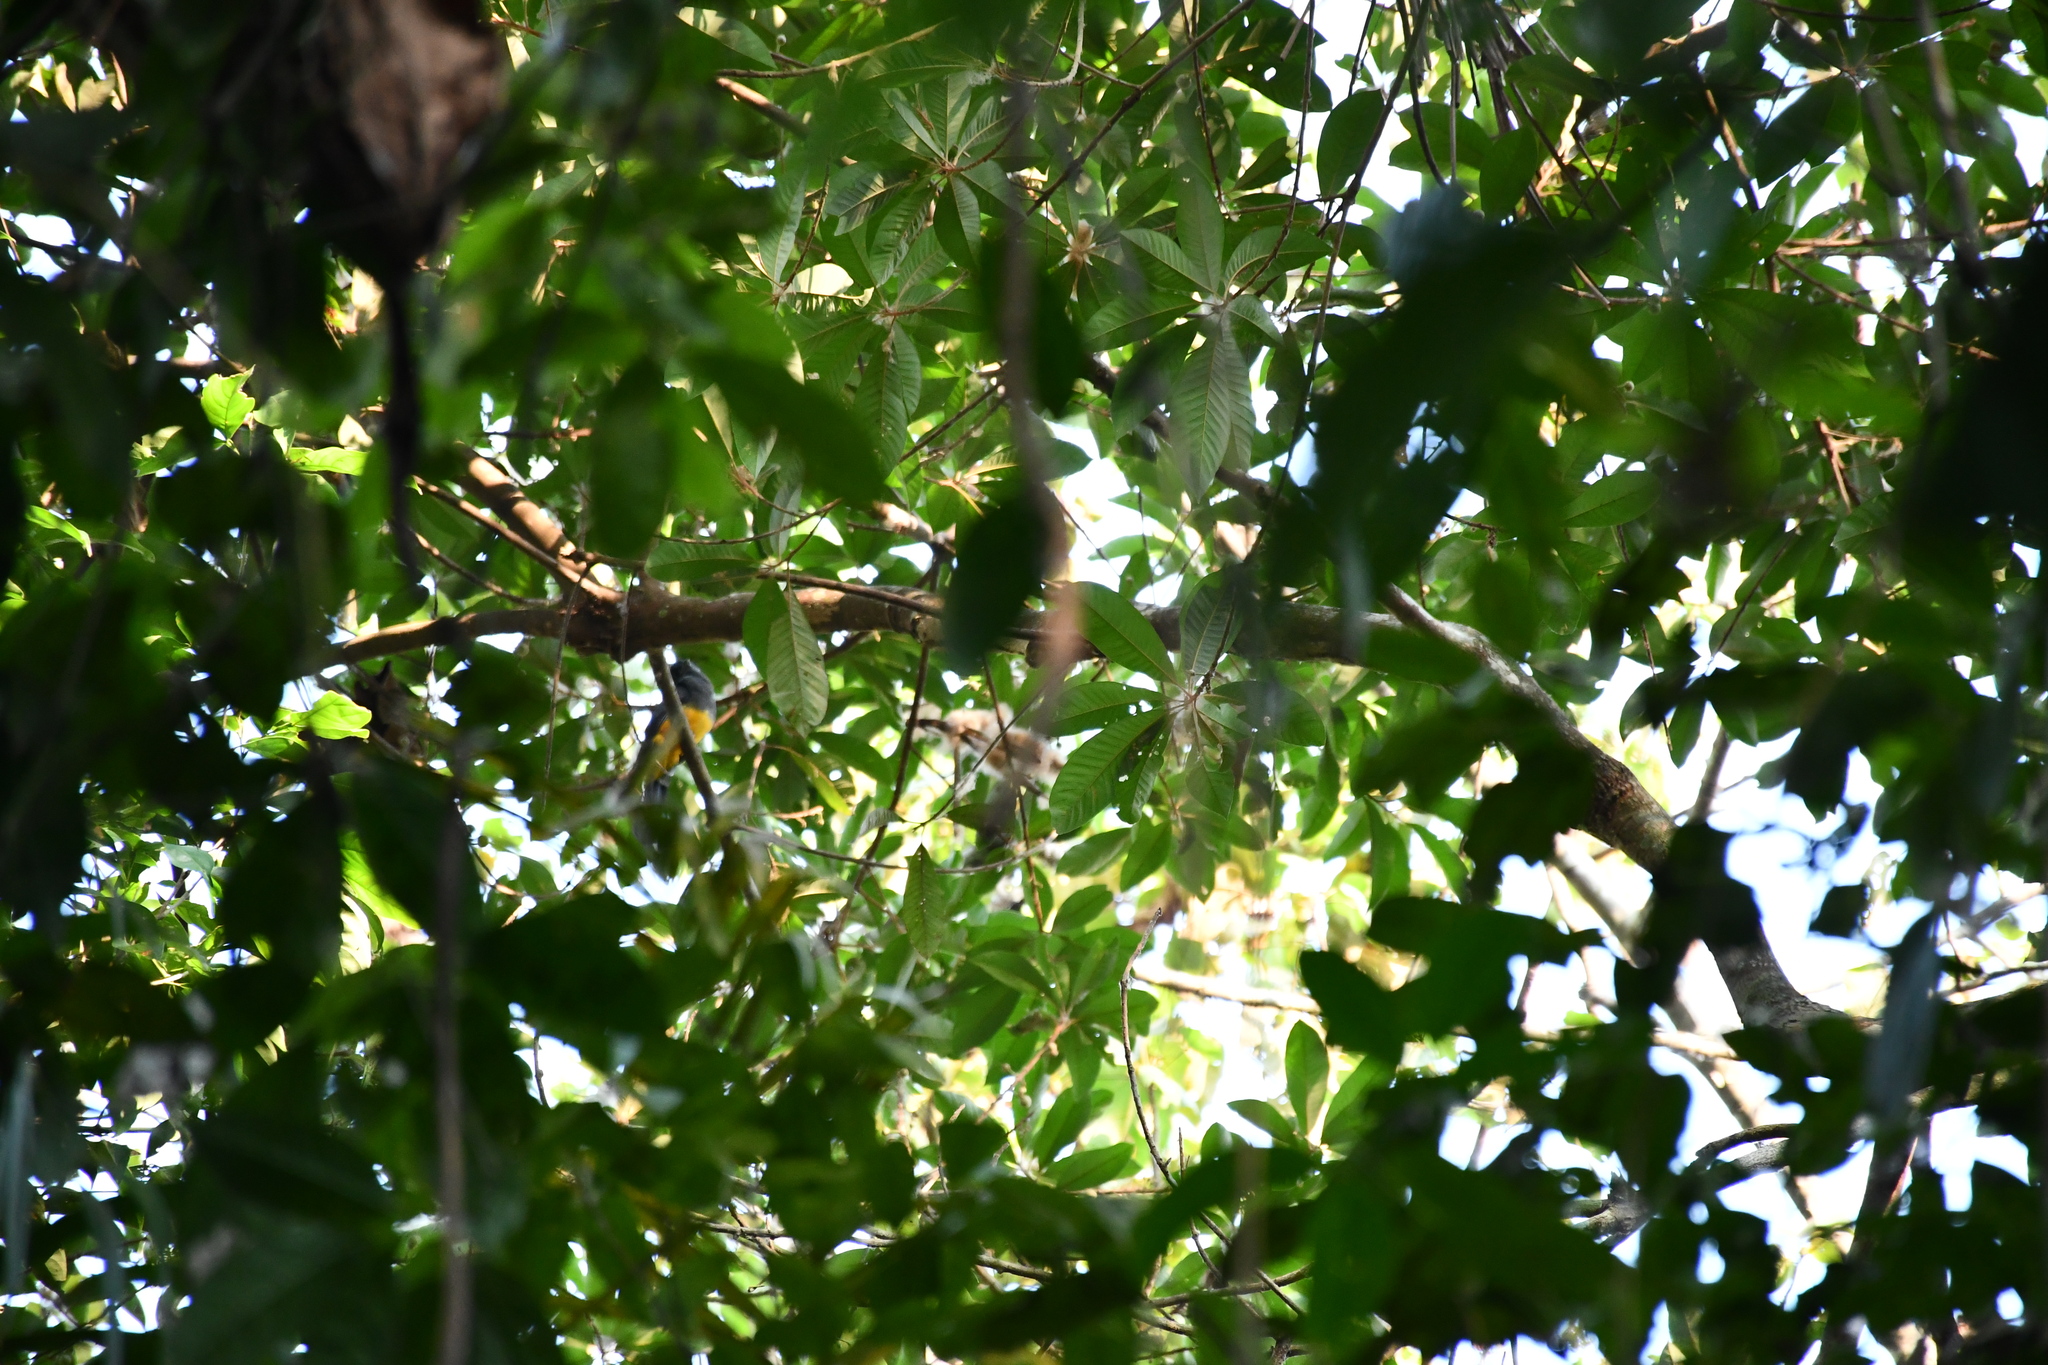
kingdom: Animalia
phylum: Chordata
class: Aves
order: Trogoniformes
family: Trogonidae
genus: Trogon
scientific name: Trogon viridis
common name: Green-backed trogon
